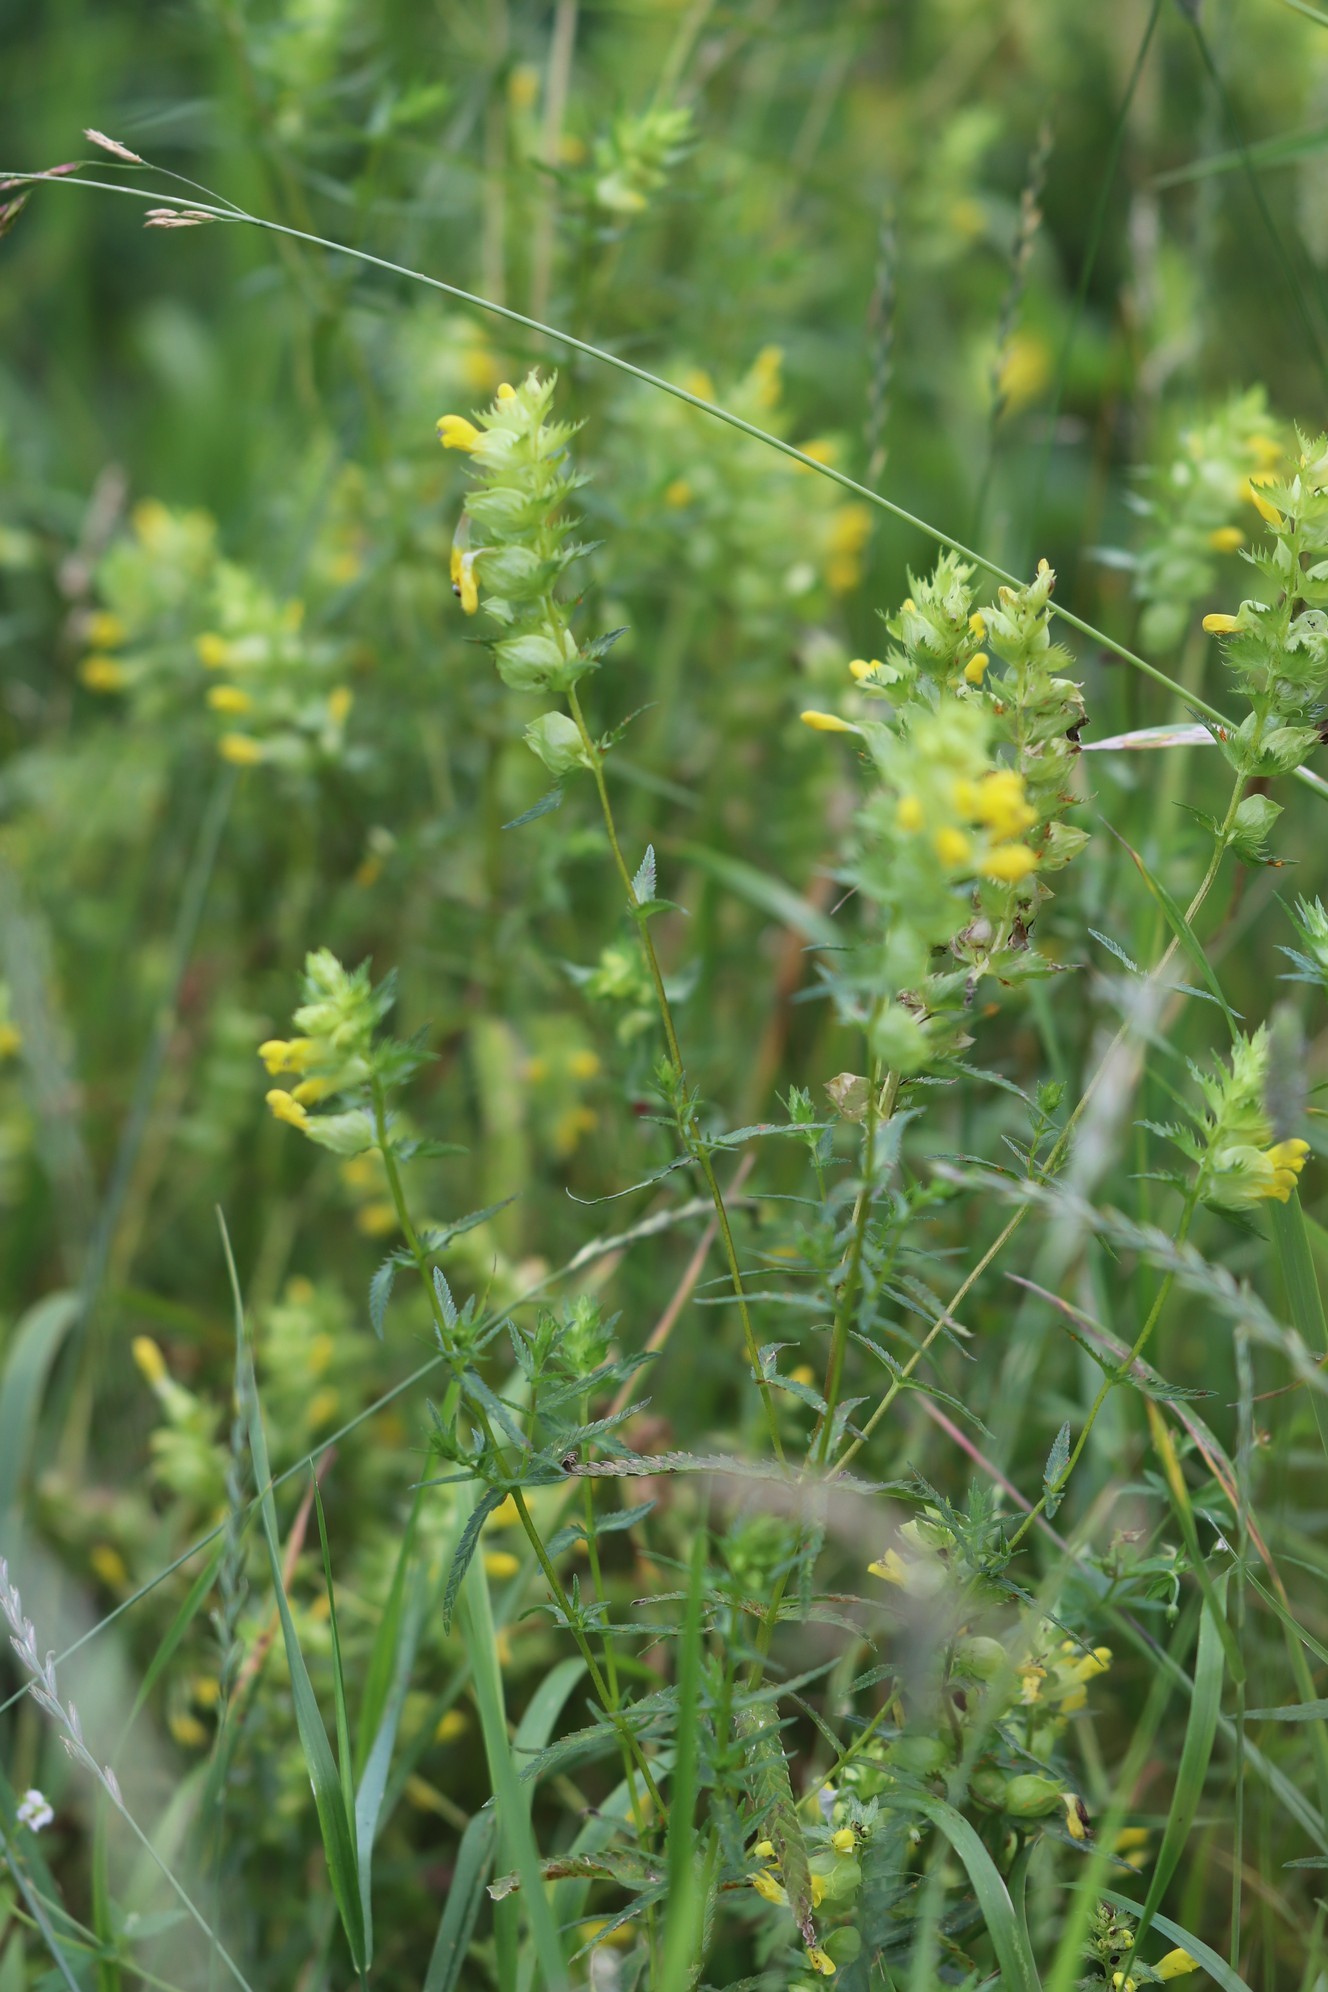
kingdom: Plantae
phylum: Tracheophyta
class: Magnoliopsida
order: Lamiales
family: Orobanchaceae
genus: Rhinanthus
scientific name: Rhinanthus serotinus
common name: Late-flowering yellow rattle
